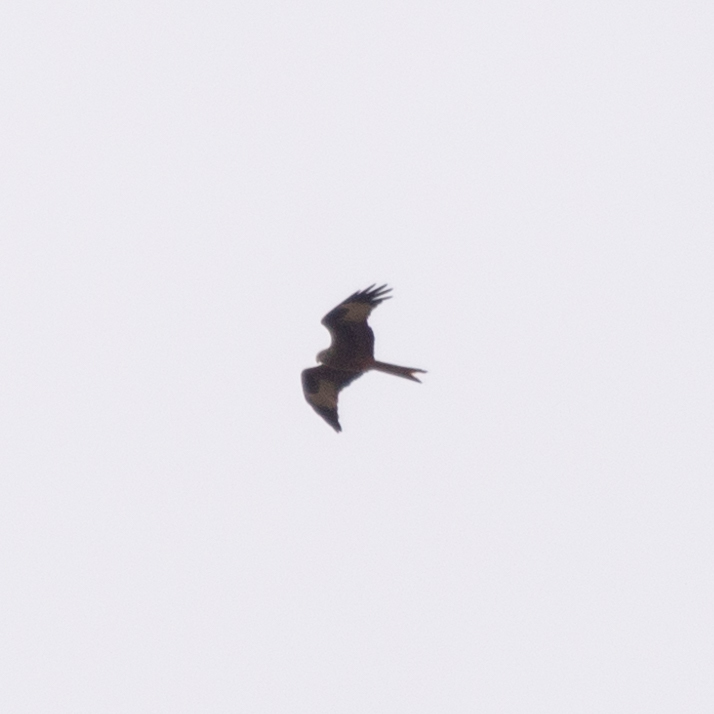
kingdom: Animalia
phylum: Chordata
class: Aves
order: Accipitriformes
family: Accipitridae
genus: Milvus
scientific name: Milvus milvus
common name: Red kite
